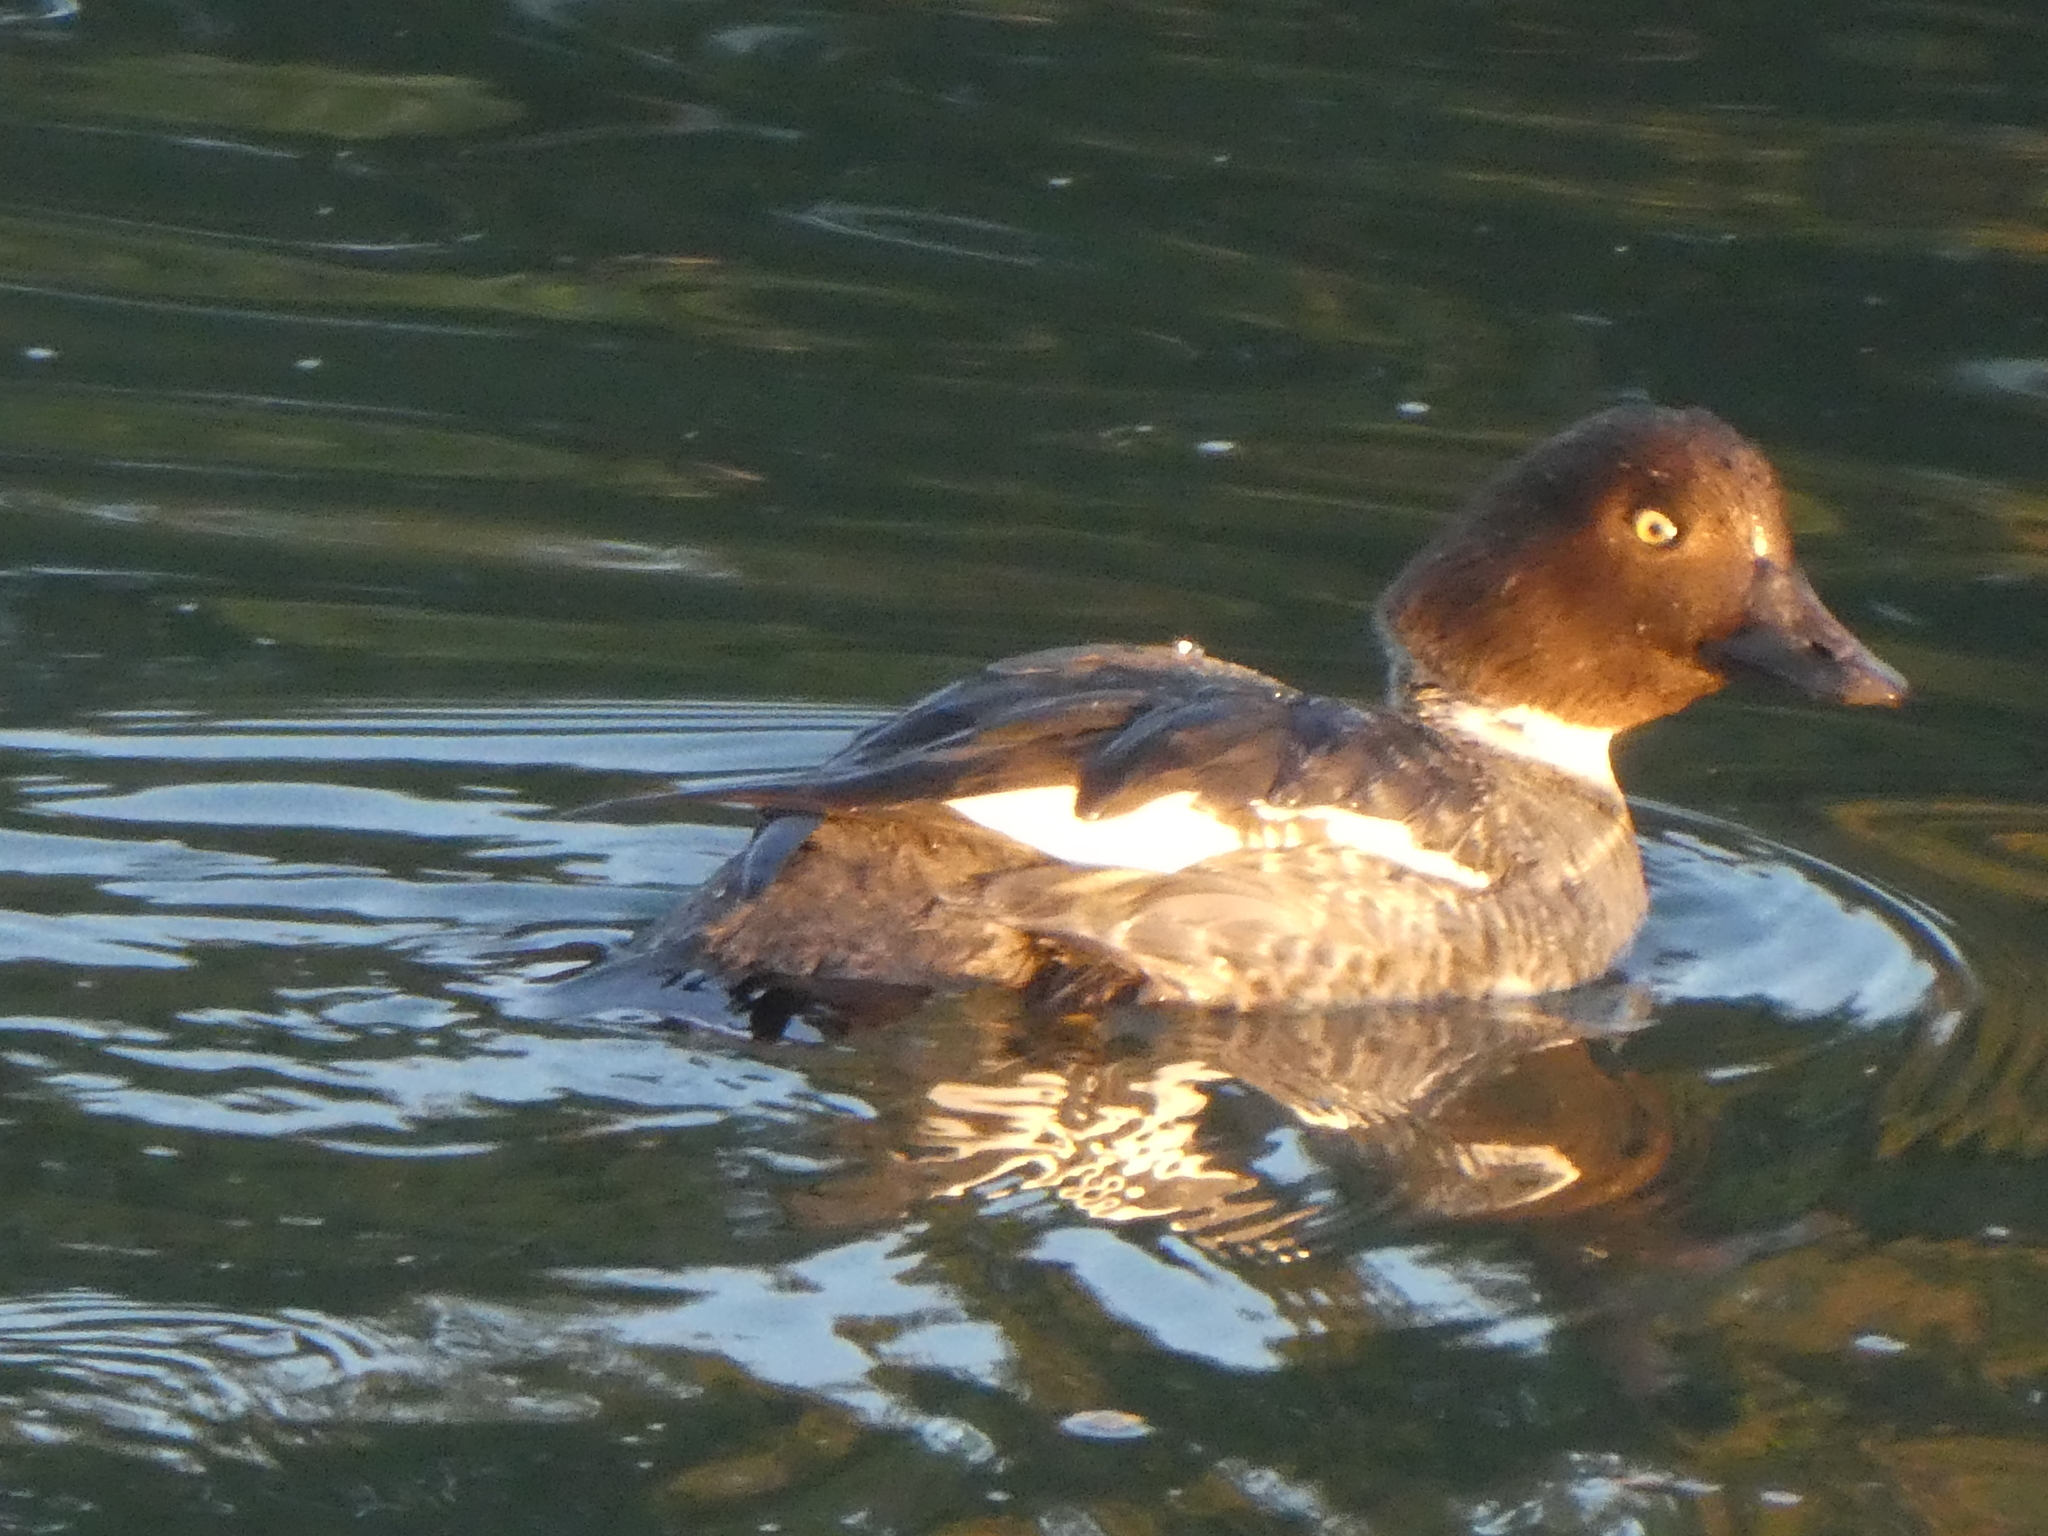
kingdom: Animalia
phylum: Chordata
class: Aves
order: Anseriformes
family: Anatidae
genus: Bucephala
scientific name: Bucephala clangula
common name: Common goldeneye
